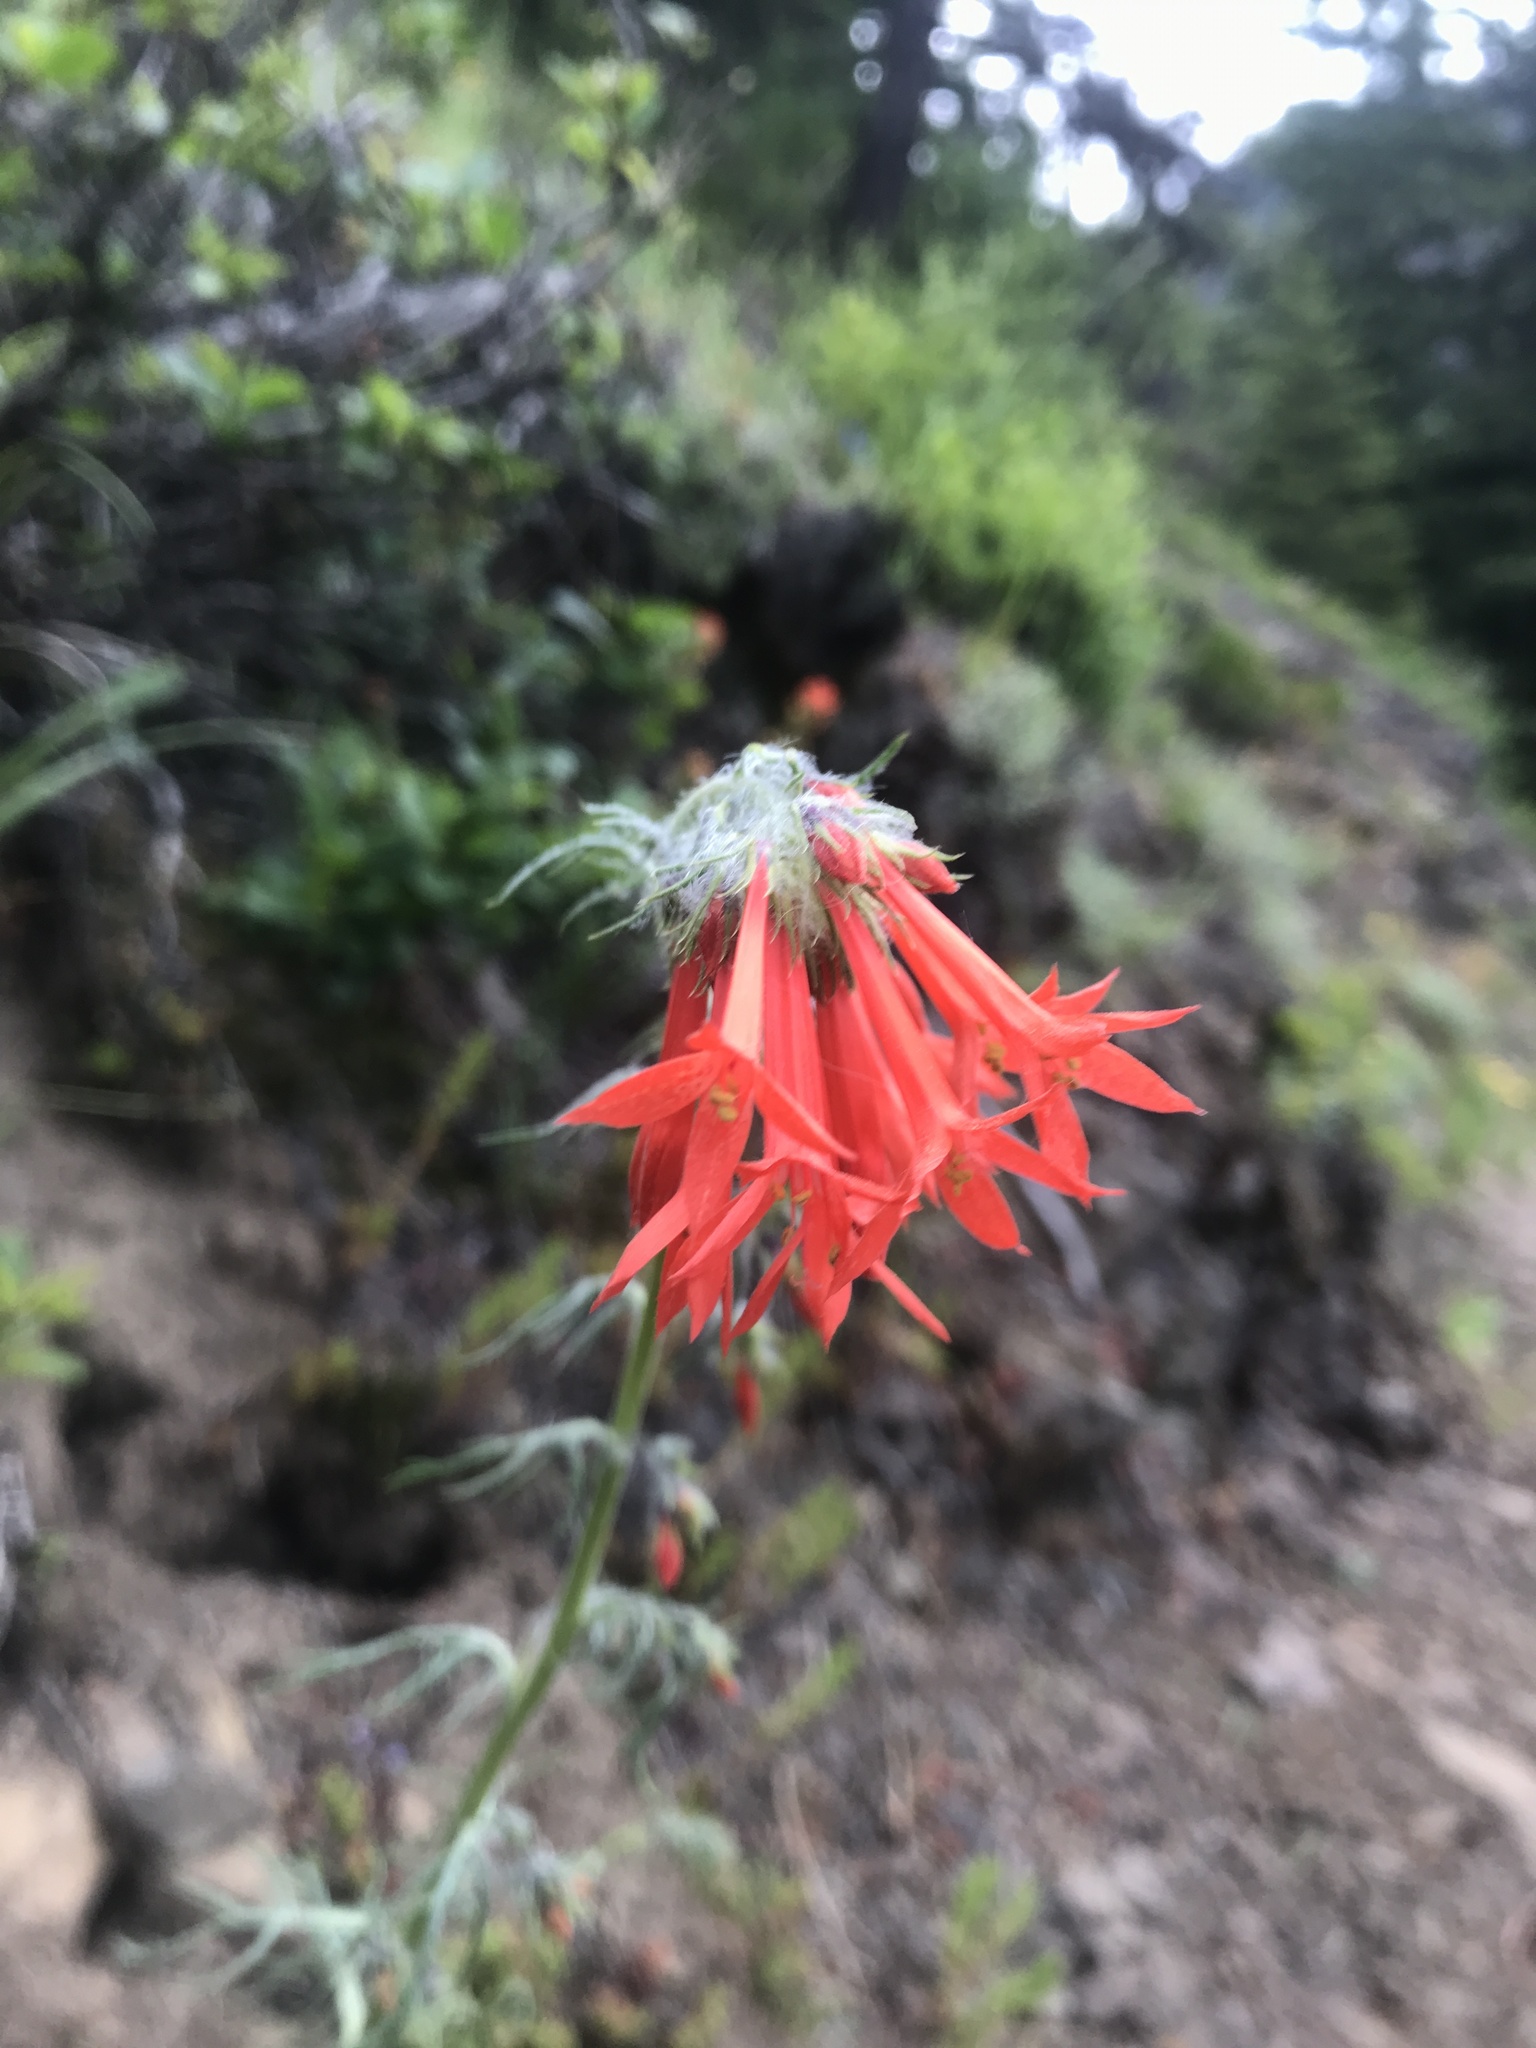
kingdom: Plantae
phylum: Tracheophyta
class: Magnoliopsida
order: Ericales
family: Polemoniaceae
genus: Ipomopsis
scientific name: Ipomopsis aggregata
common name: Scarlet gilia
